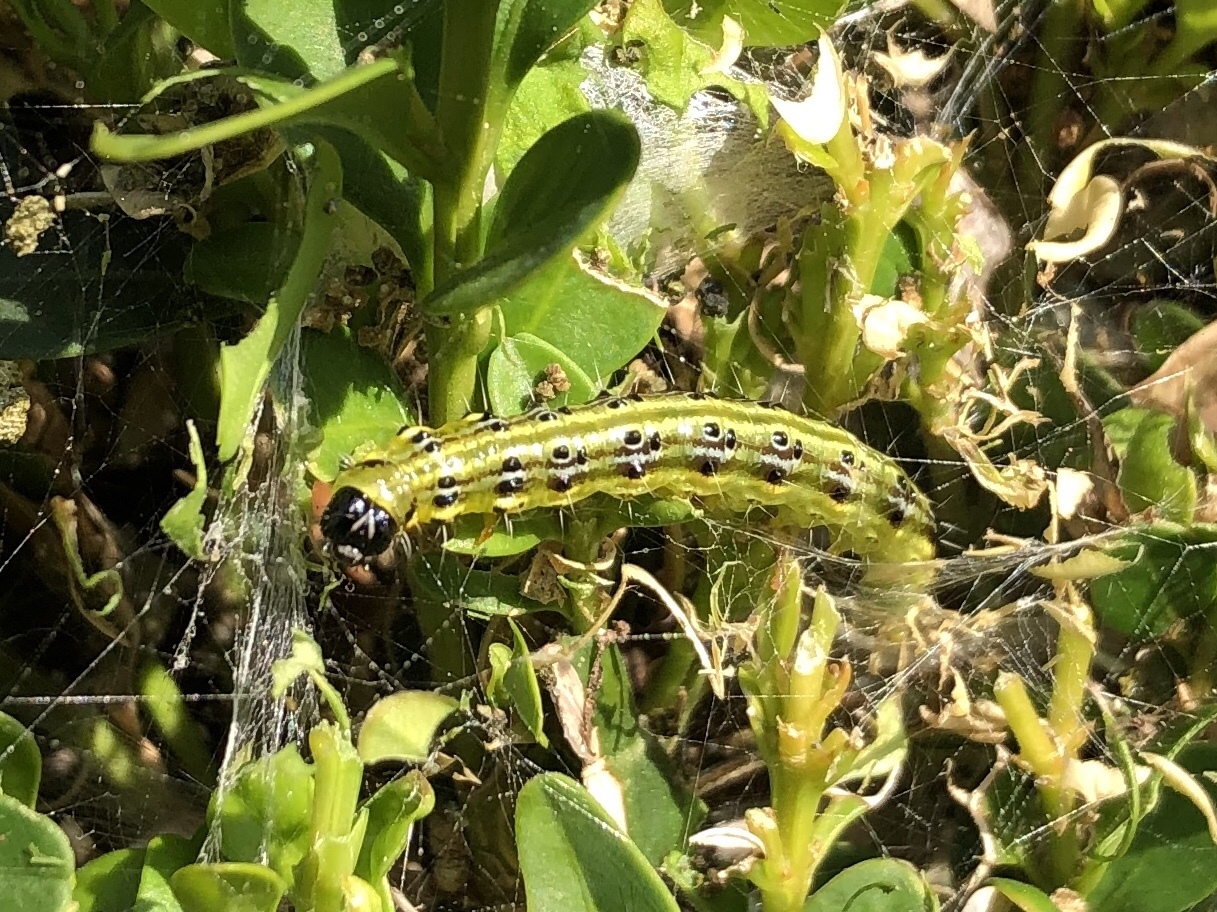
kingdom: Animalia
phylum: Arthropoda
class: Insecta
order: Lepidoptera
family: Crambidae
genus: Cydalima
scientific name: Cydalima perspectalis
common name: Box tree moth
